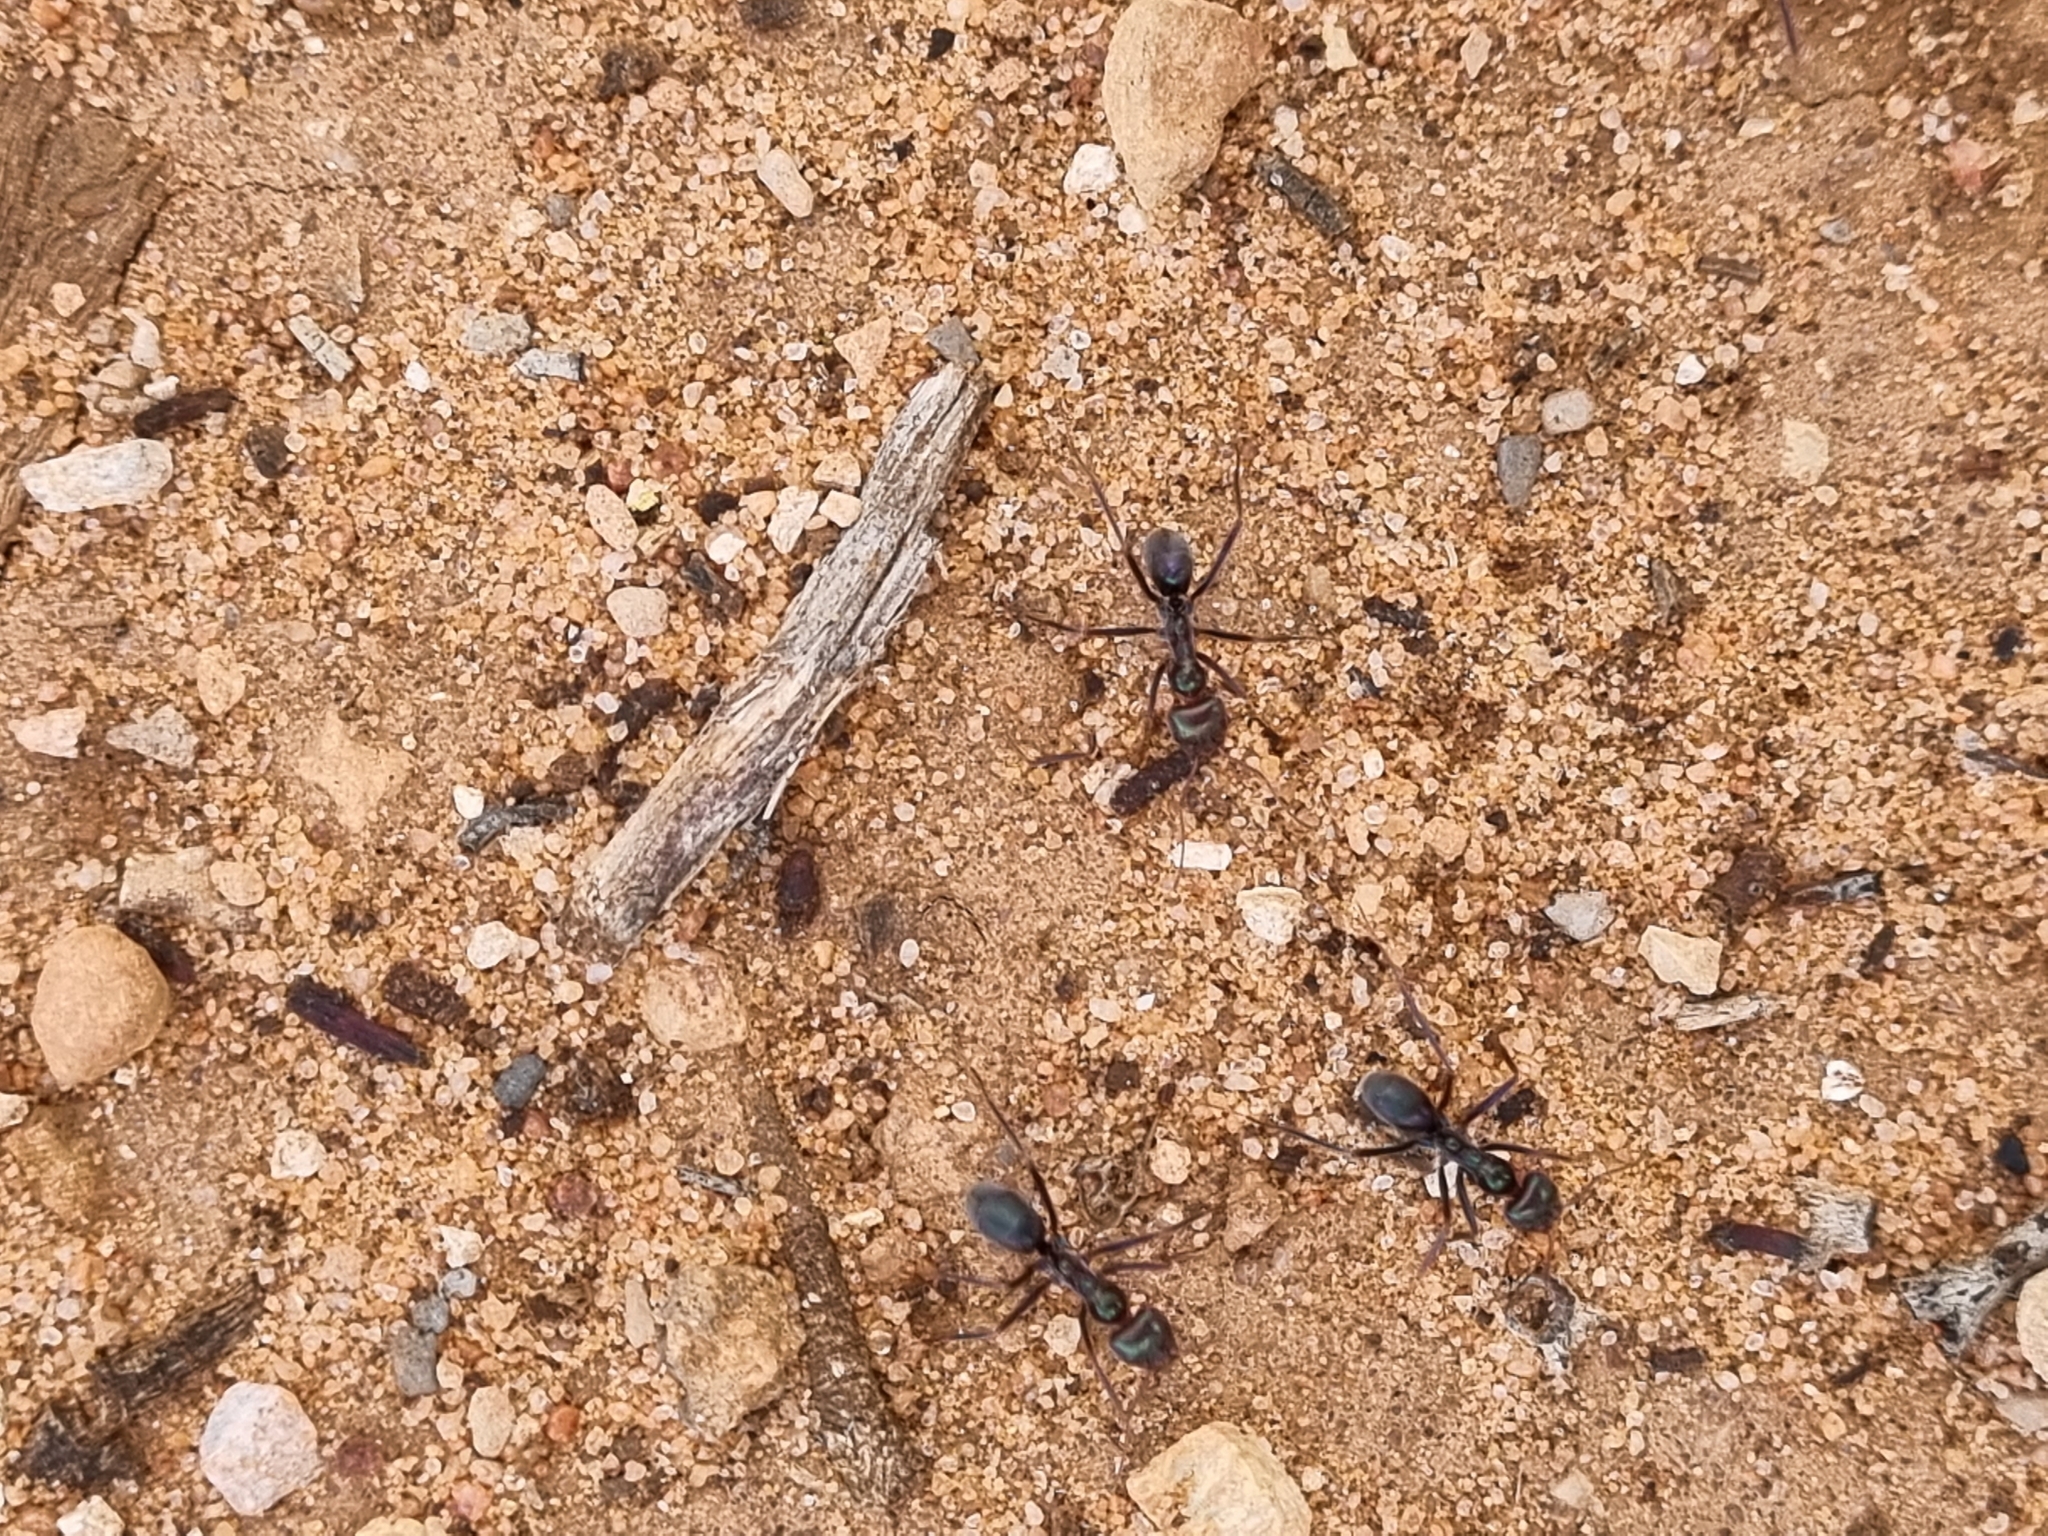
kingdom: Animalia
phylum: Arthropoda
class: Insecta
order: Hymenoptera
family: Formicidae
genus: Iridomyrmex
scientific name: Iridomyrmex viridiaeneus
